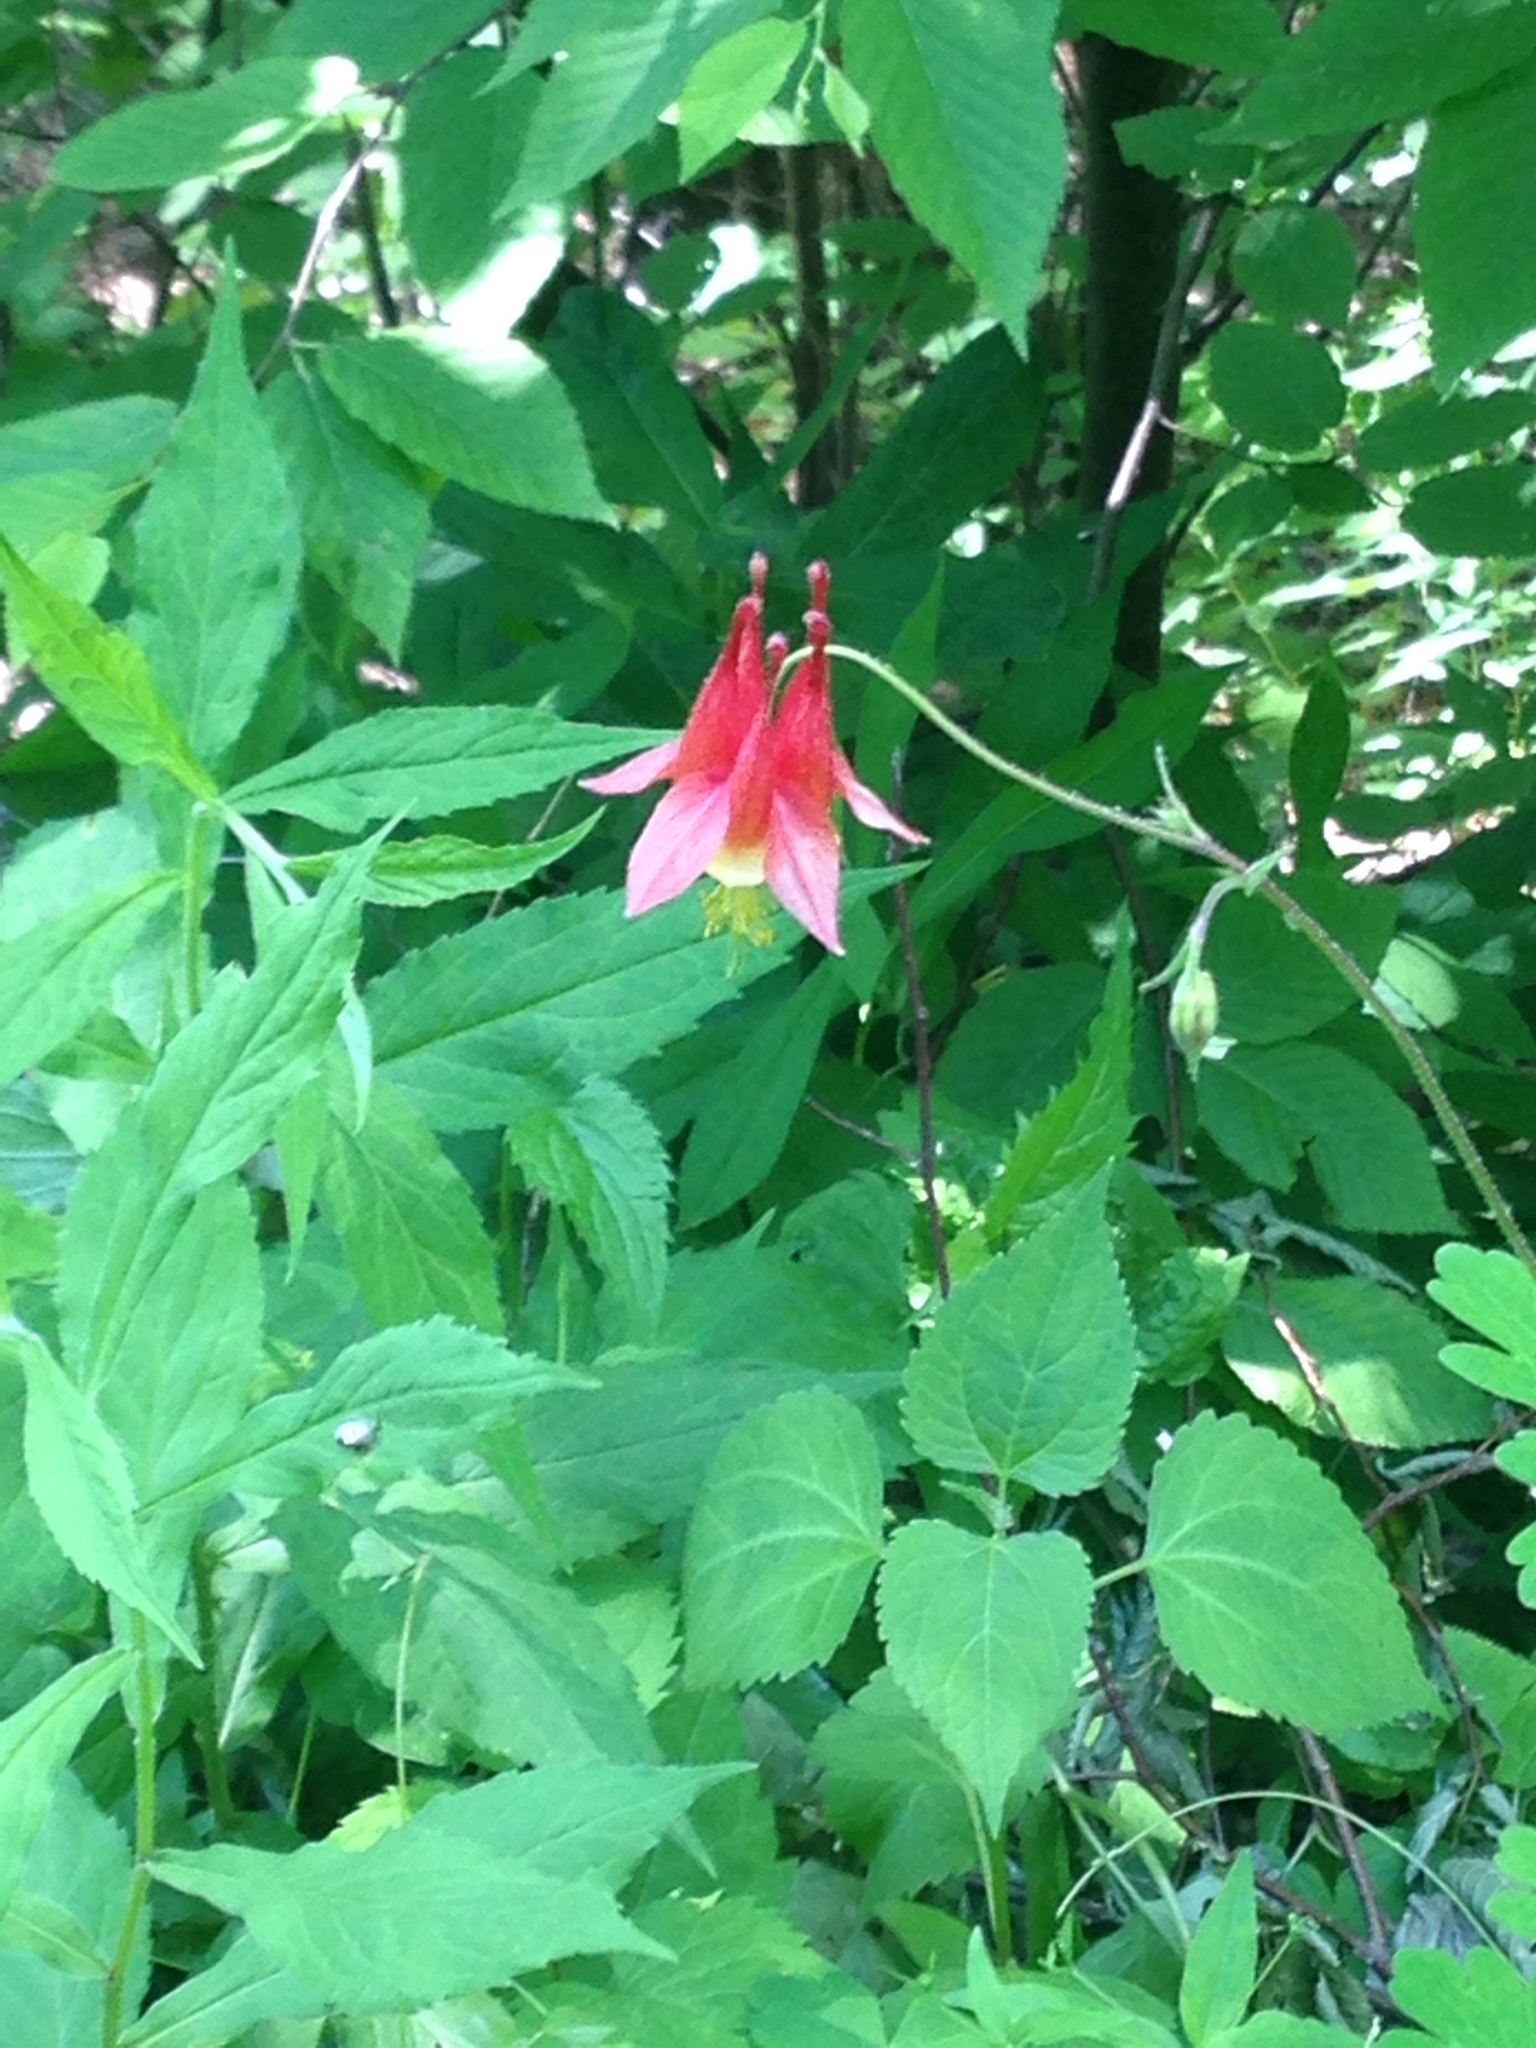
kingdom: Plantae
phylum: Tracheophyta
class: Magnoliopsida
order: Ranunculales
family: Ranunculaceae
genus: Aquilegia
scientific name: Aquilegia canadensis
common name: American columbine
